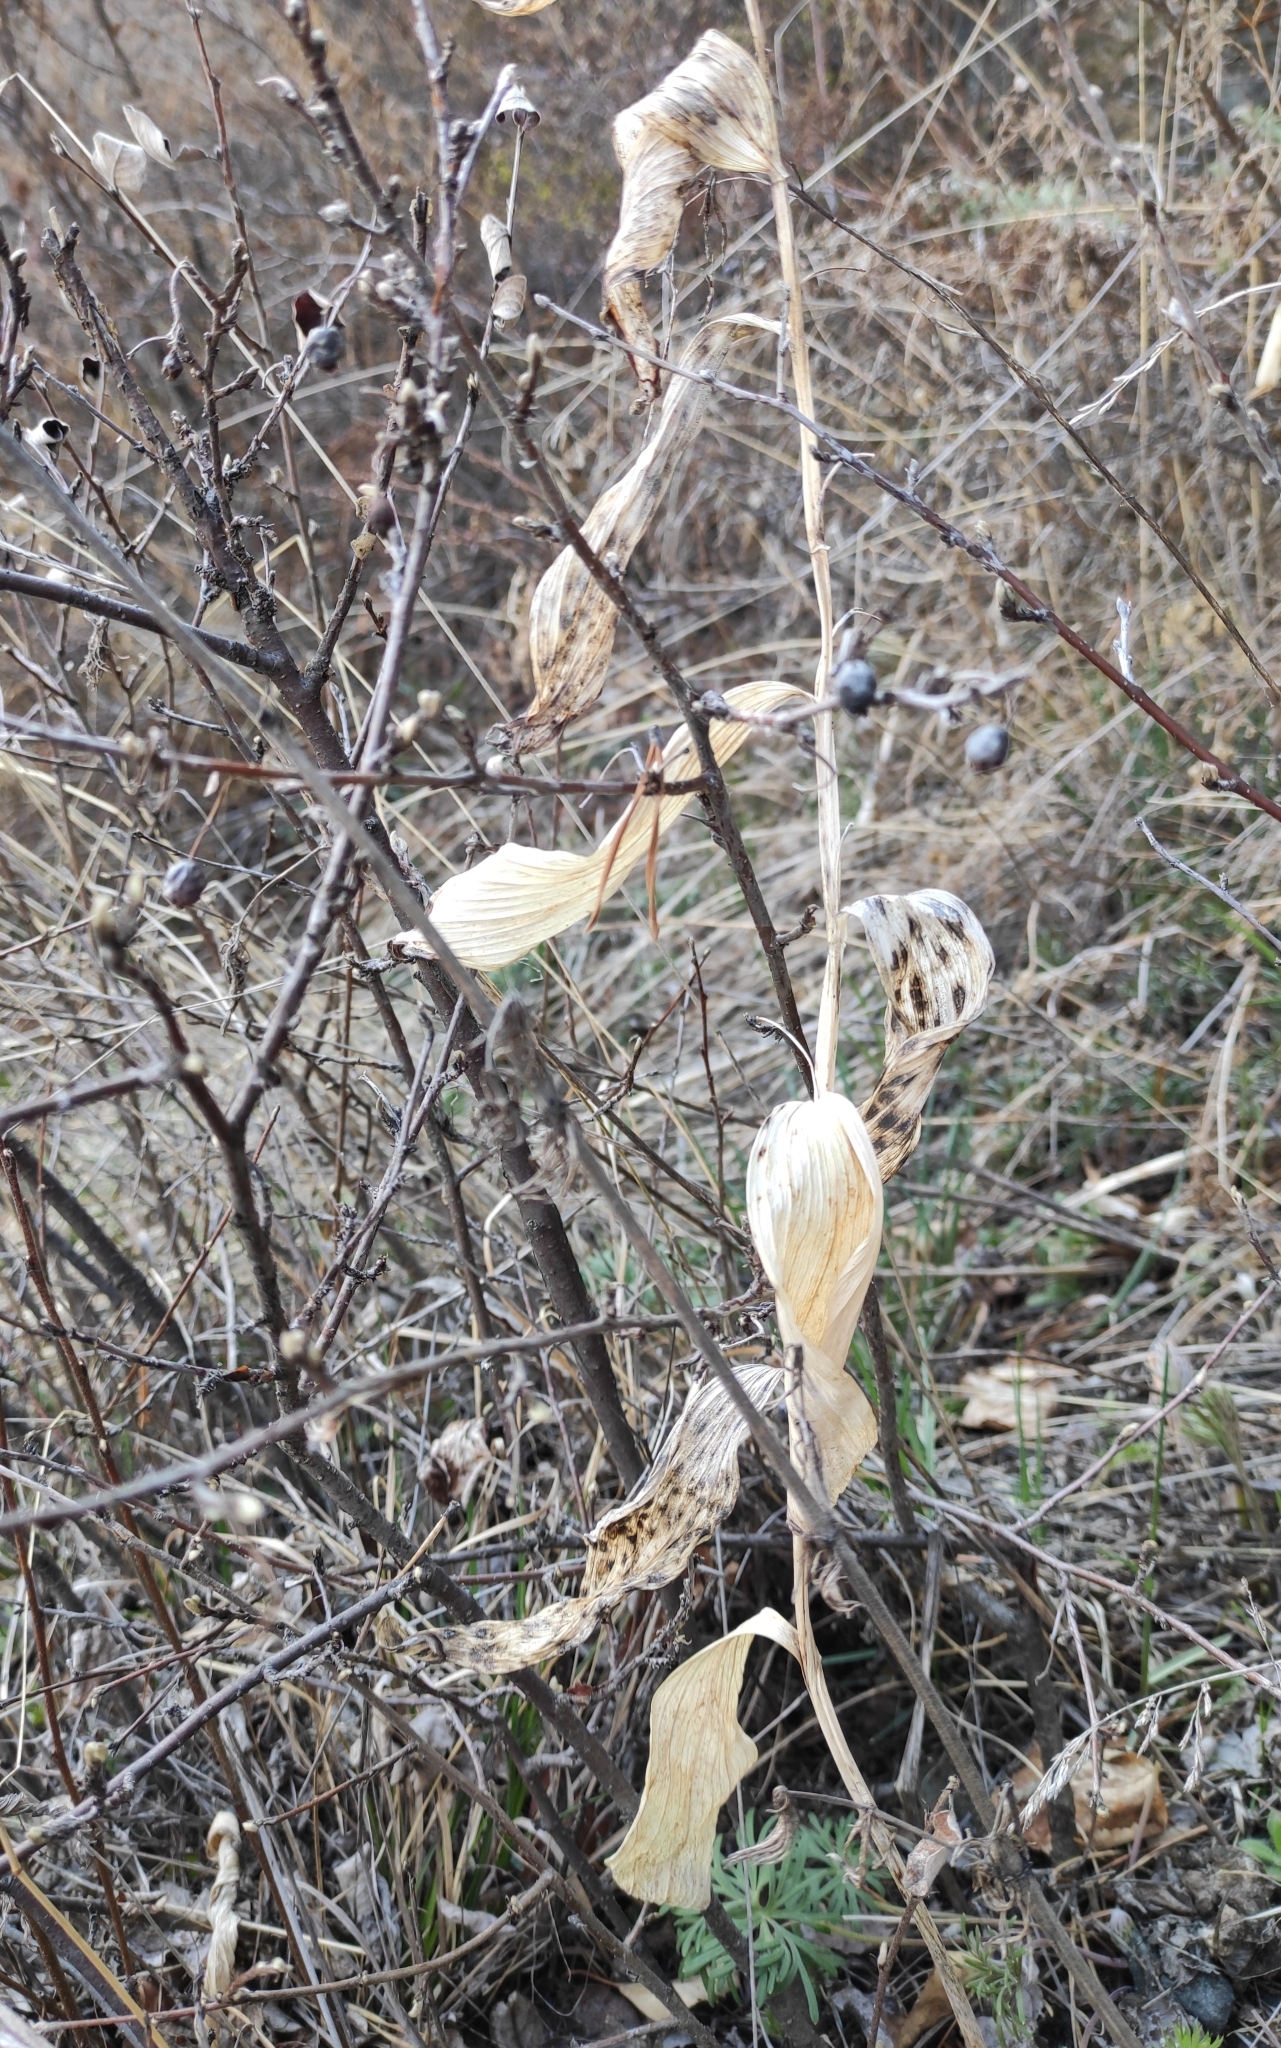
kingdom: Plantae
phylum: Tracheophyta
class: Liliopsida
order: Asparagales
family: Asparagaceae
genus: Polygonatum
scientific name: Polygonatum odoratum
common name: Angular solomon's-seal
